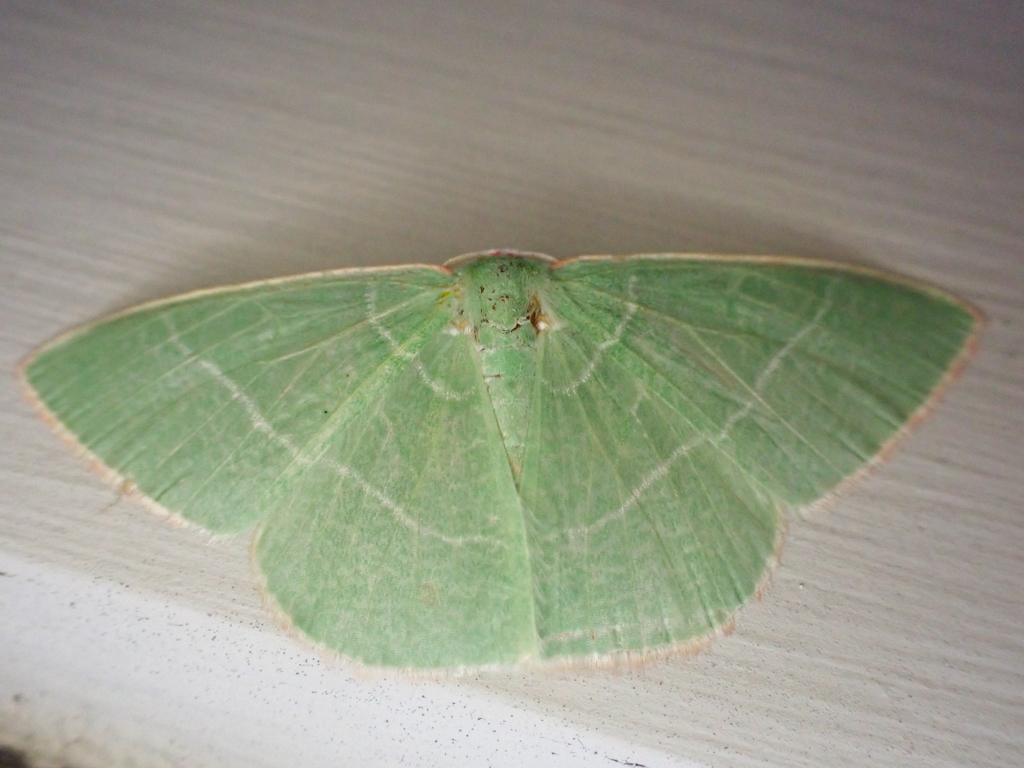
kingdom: Animalia
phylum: Arthropoda
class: Insecta
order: Lepidoptera
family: Geometridae
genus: Nemoria
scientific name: Nemoria leptalea
